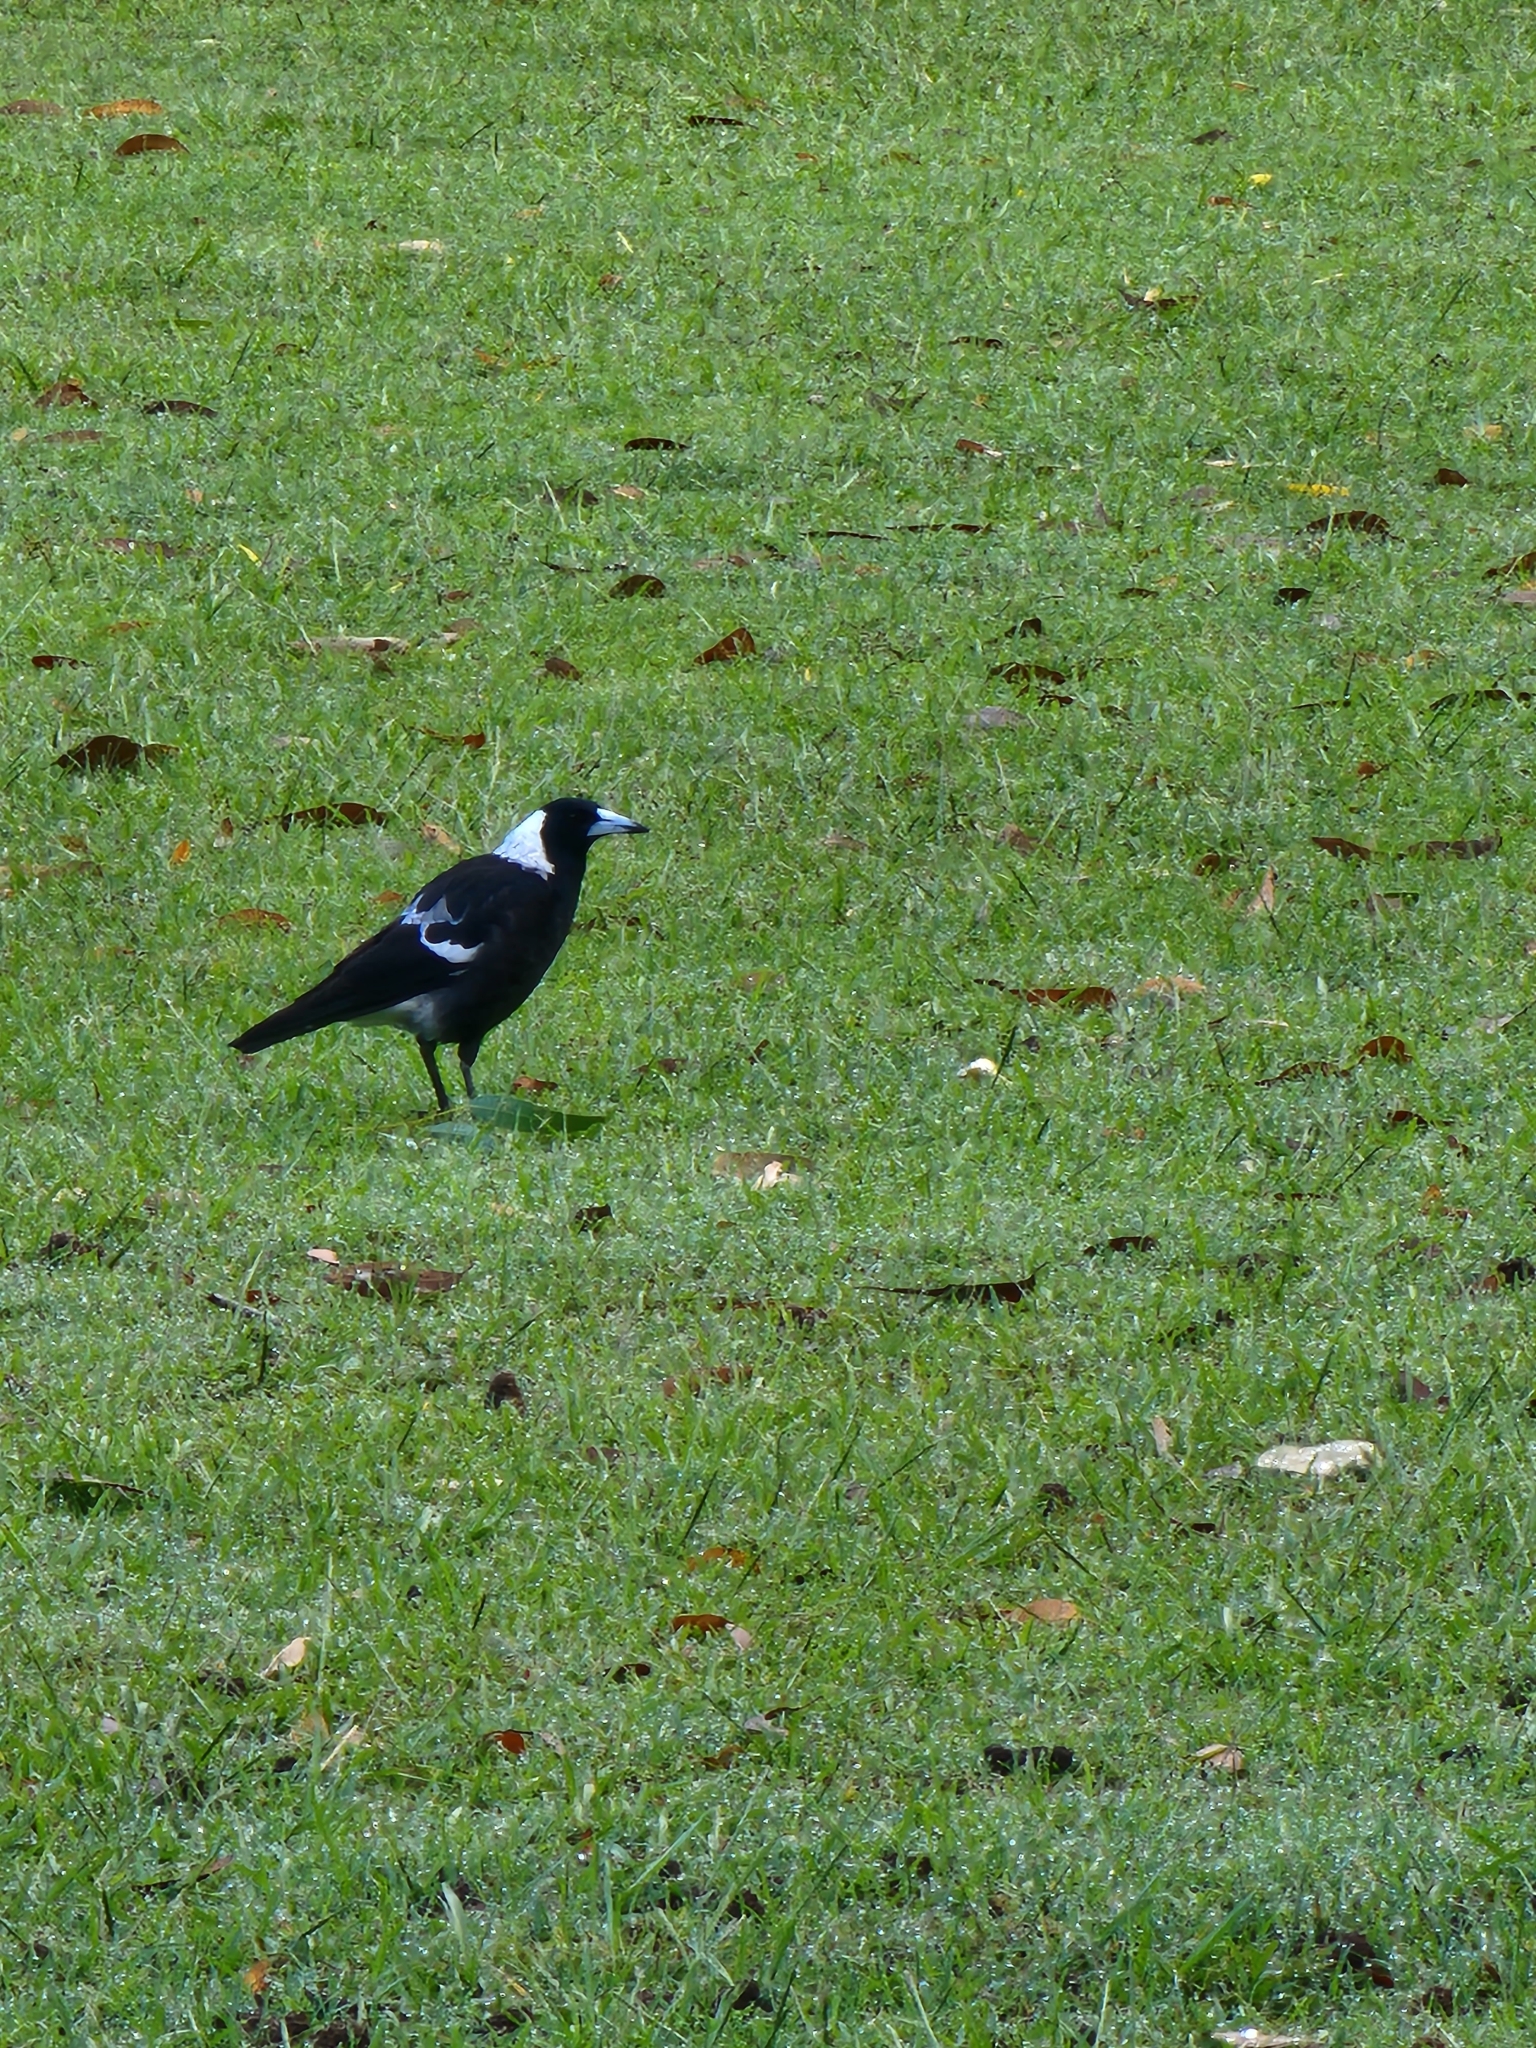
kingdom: Animalia
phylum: Chordata
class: Aves
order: Passeriformes
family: Cracticidae
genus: Gymnorhina
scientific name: Gymnorhina tibicen
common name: Australian magpie
